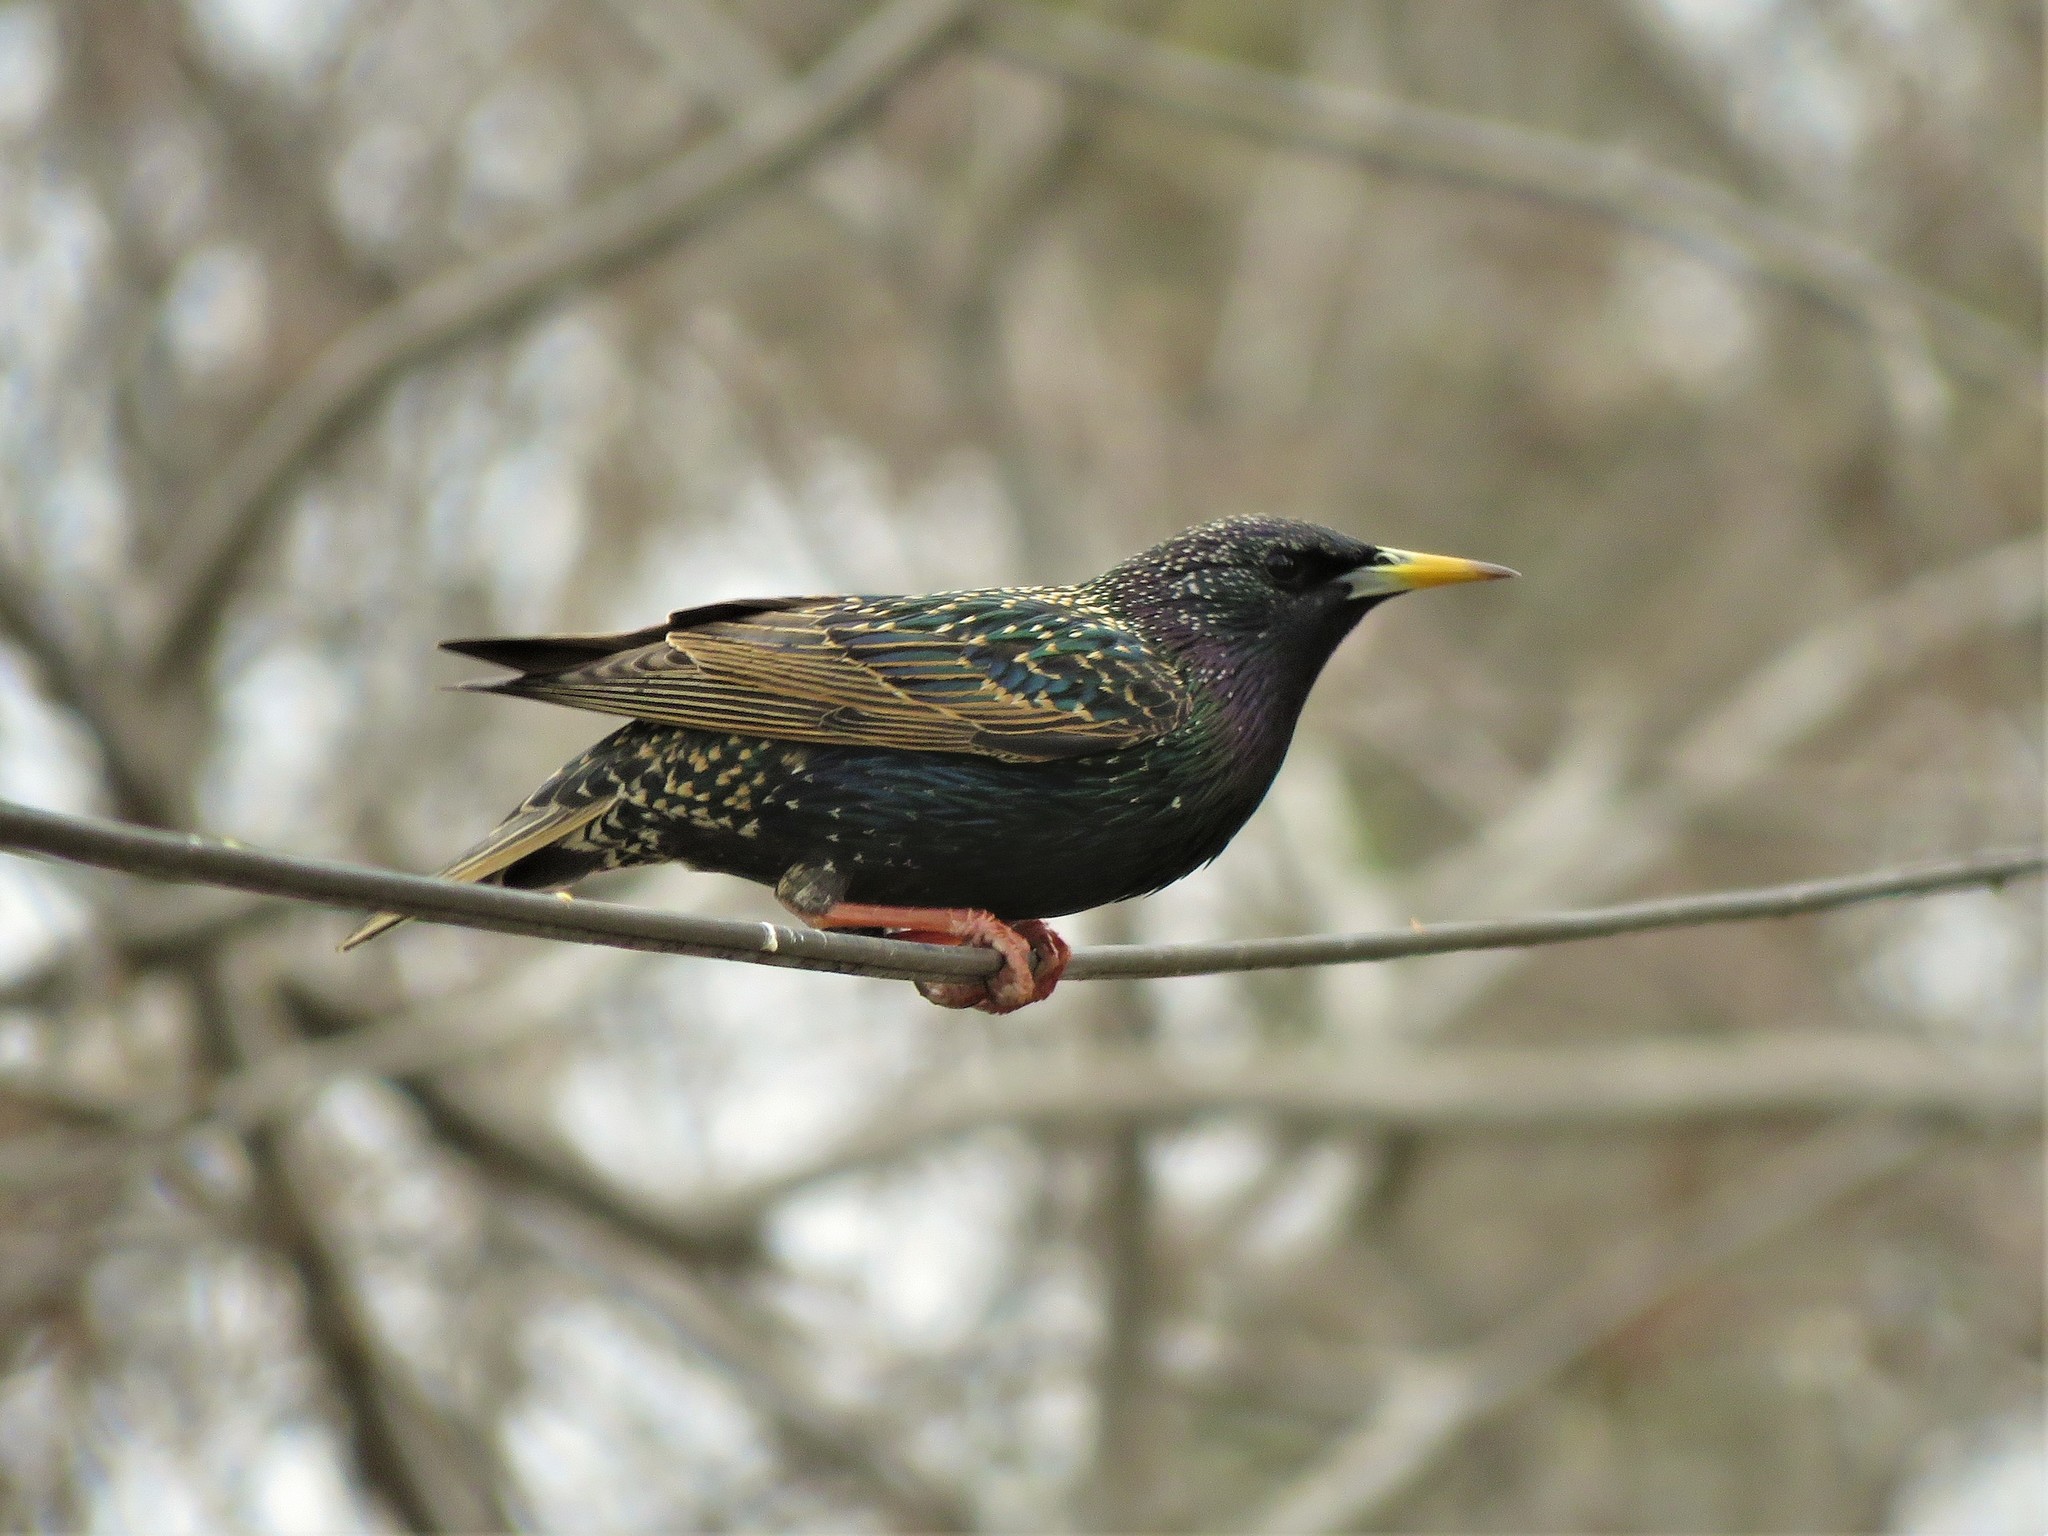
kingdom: Animalia
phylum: Chordata
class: Aves
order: Passeriformes
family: Sturnidae
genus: Sturnus
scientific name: Sturnus vulgaris
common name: Common starling
